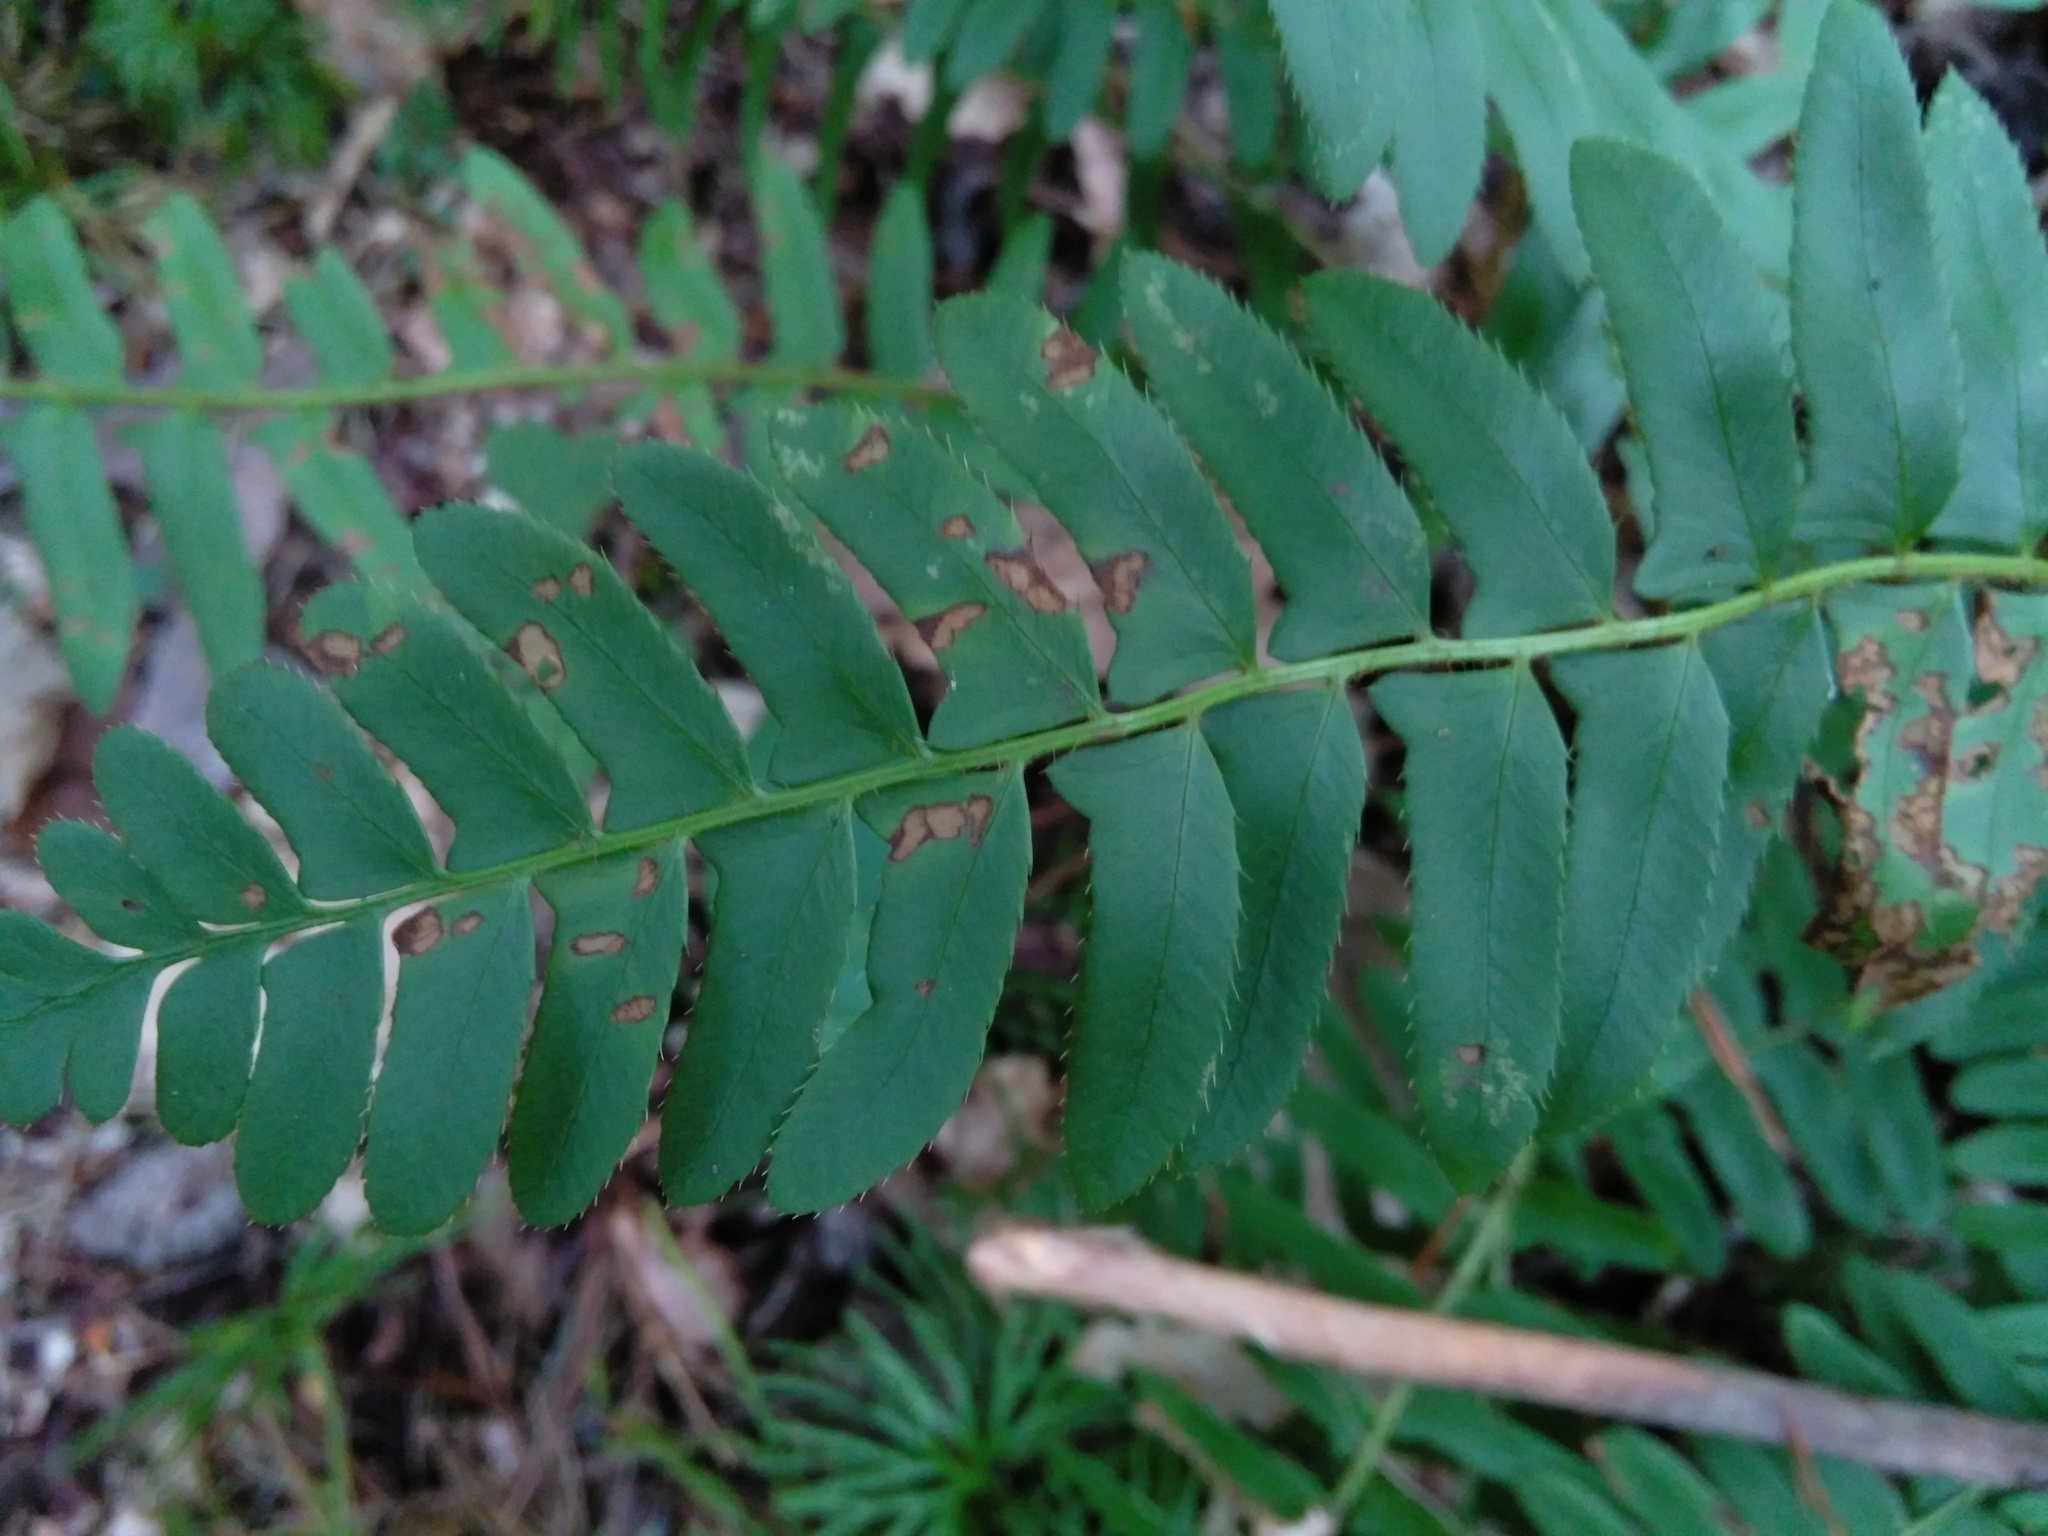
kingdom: Plantae
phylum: Tracheophyta
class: Polypodiopsida
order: Polypodiales
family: Dryopteridaceae
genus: Polystichum
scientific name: Polystichum acrostichoides
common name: Christmas fern
